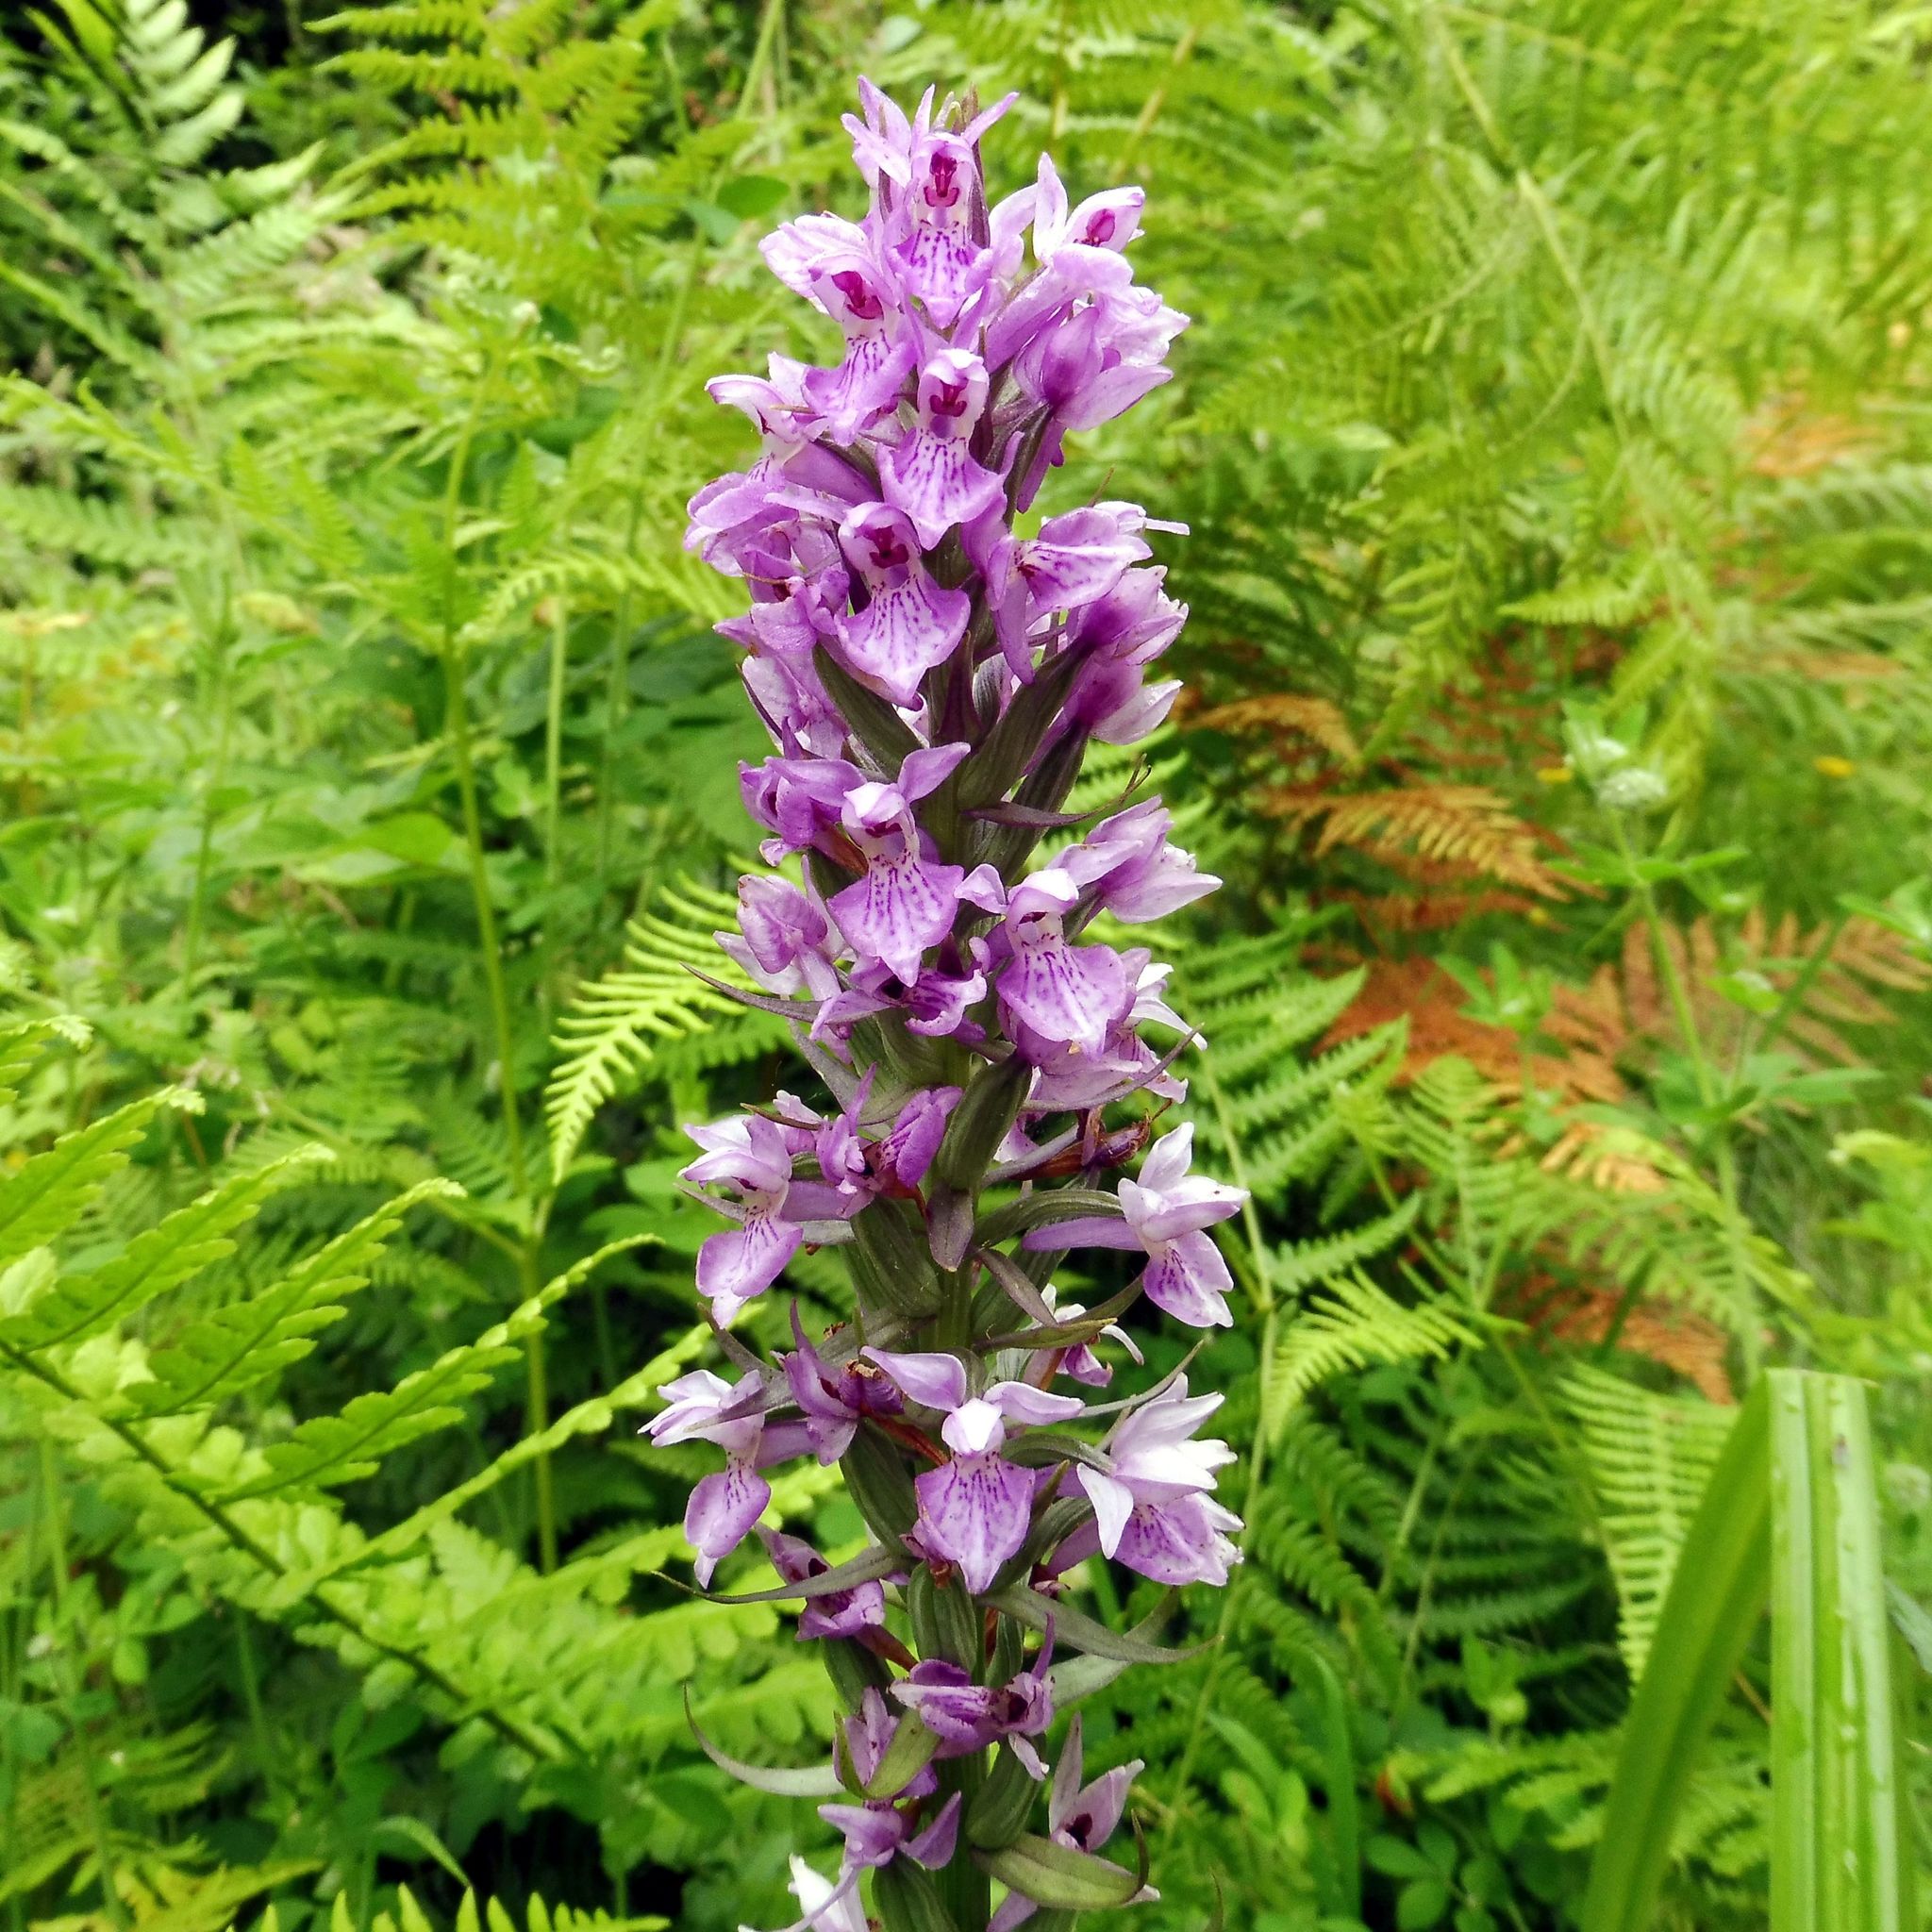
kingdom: Plantae
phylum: Tracheophyta
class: Liliopsida
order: Asparagales
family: Orchidaceae
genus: Dactylorhiza
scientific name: Dactylorhiza majalis
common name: Marsh orchid
